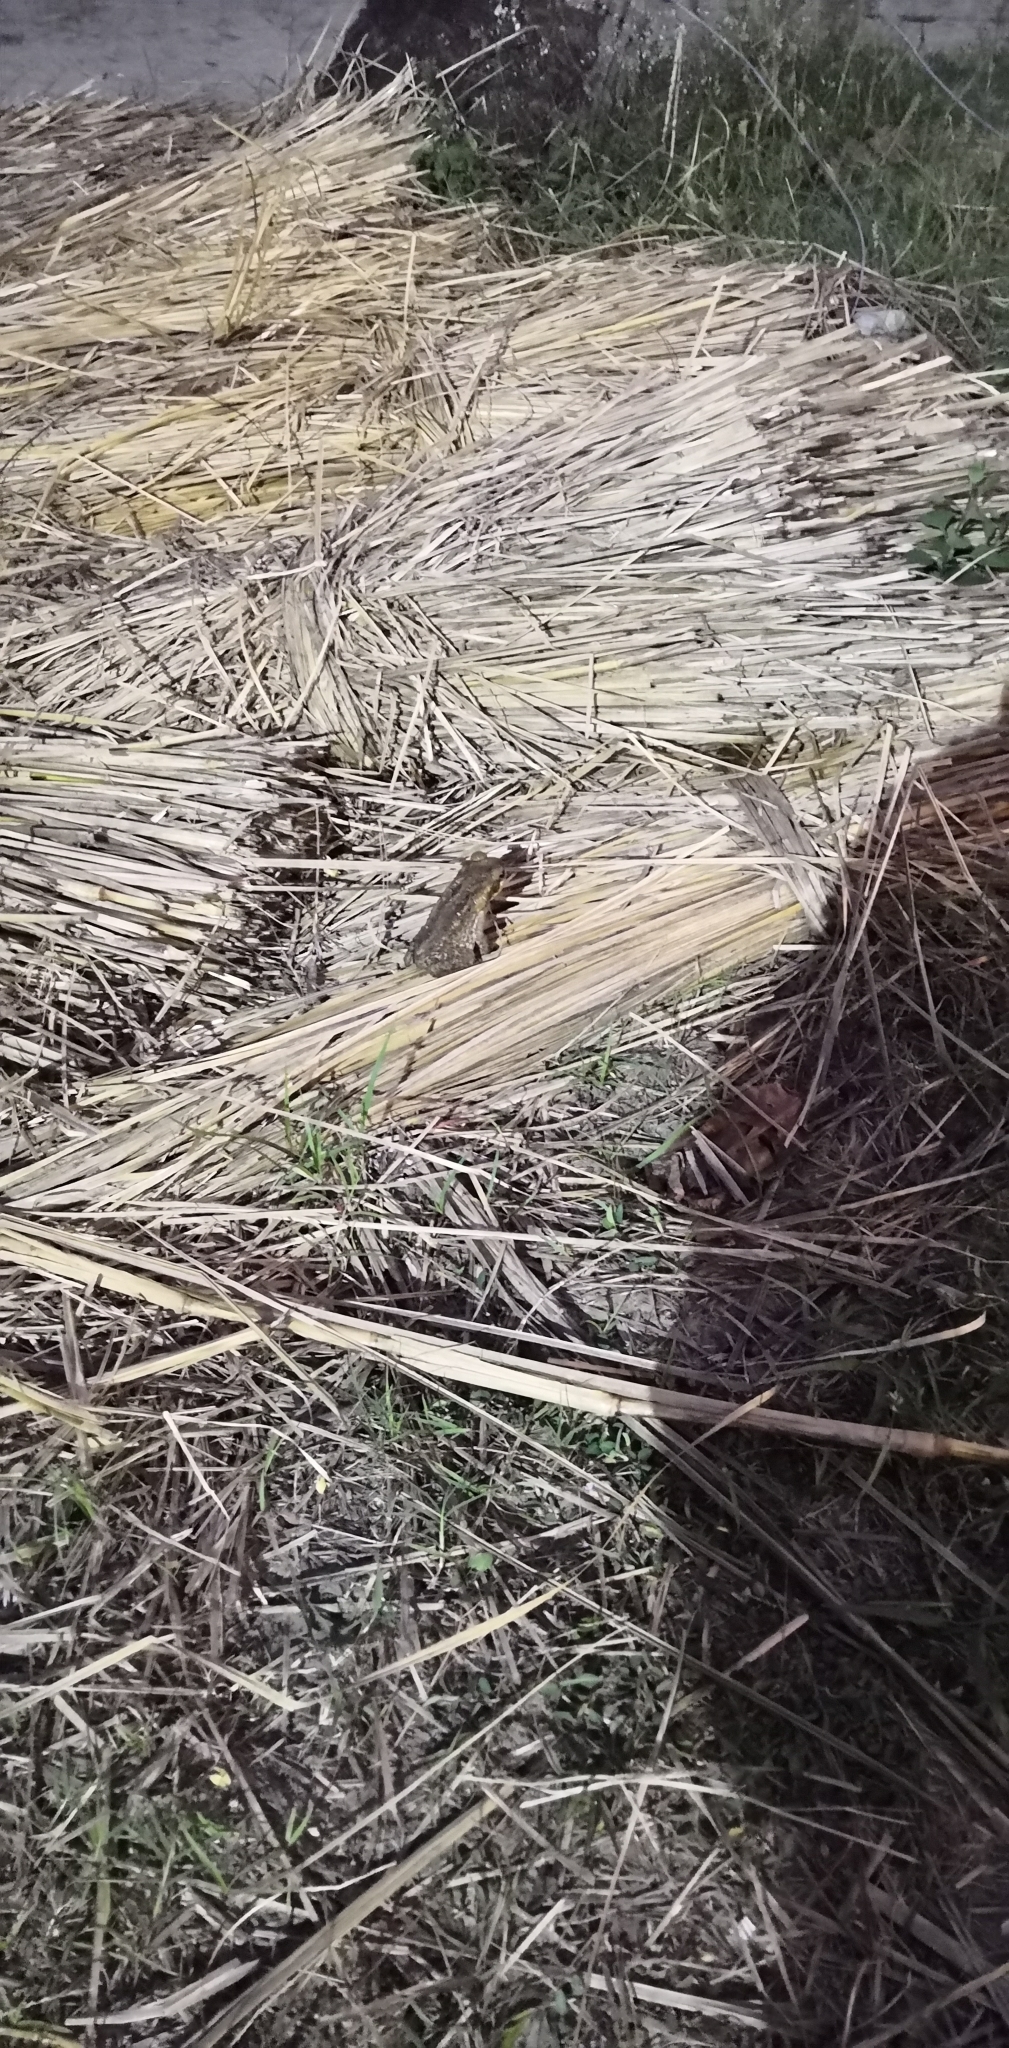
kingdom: Animalia
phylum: Chordata
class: Amphibia
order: Anura
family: Bufonidae
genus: Rhinella
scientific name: Rhinella marina
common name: Cane toad
